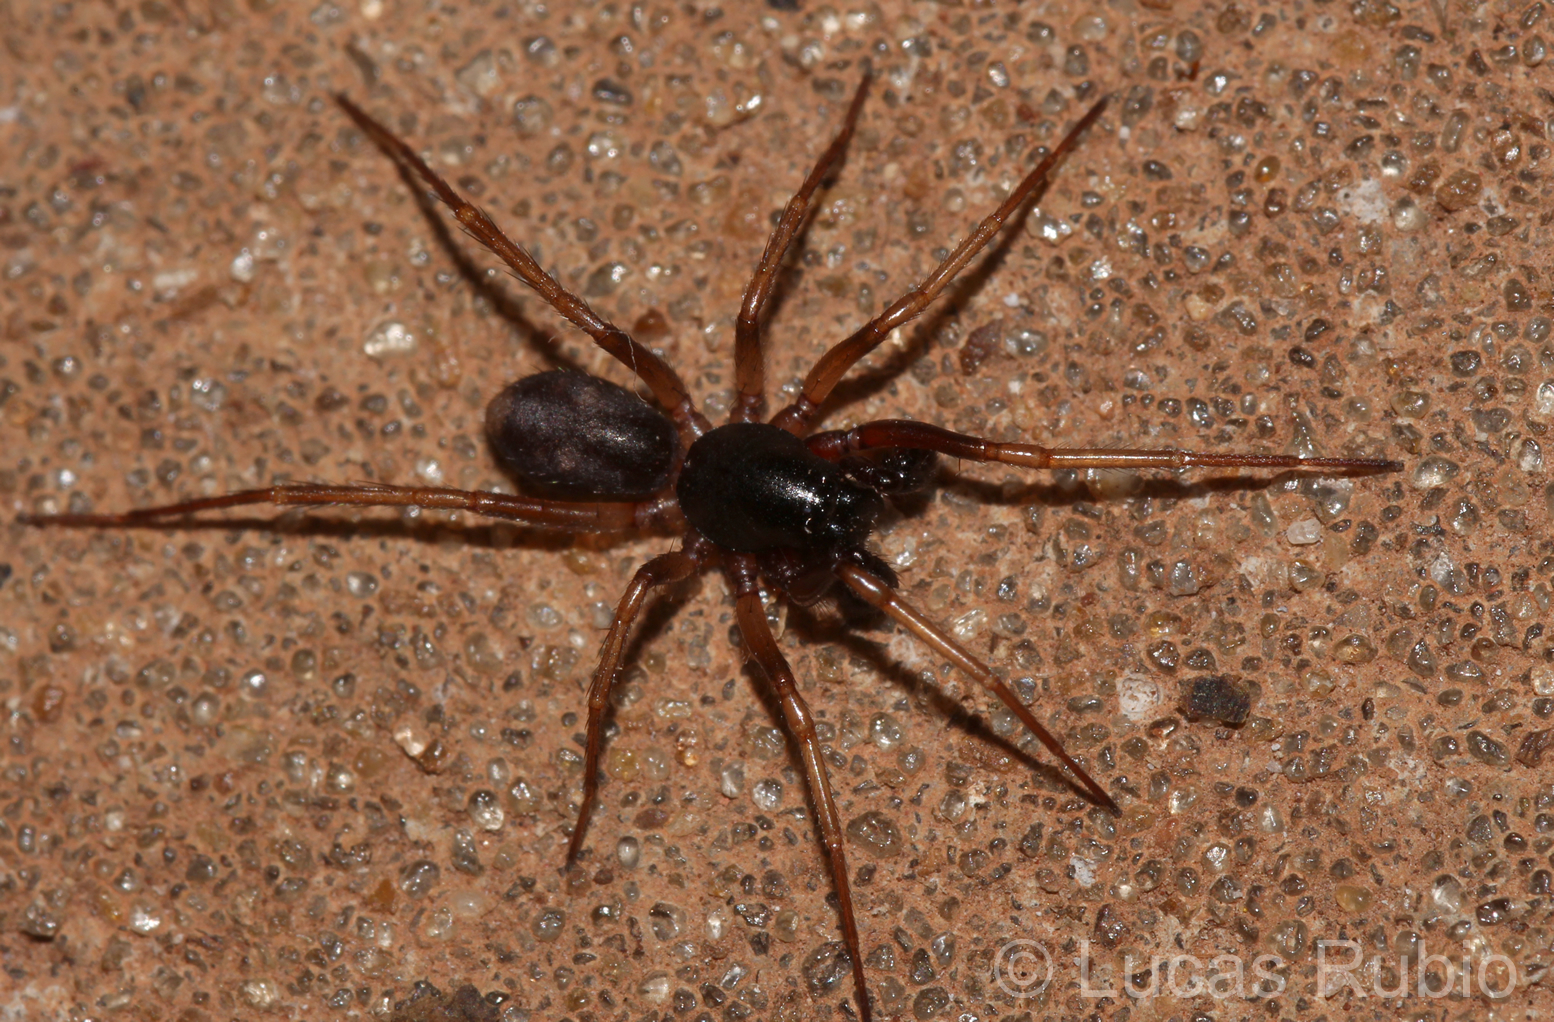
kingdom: Animalia
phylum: Arthropoda
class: Arachnida
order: Araneae
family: Corinnidae
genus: Falconina
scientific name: Falconina gracilis
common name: Antmimic spider
